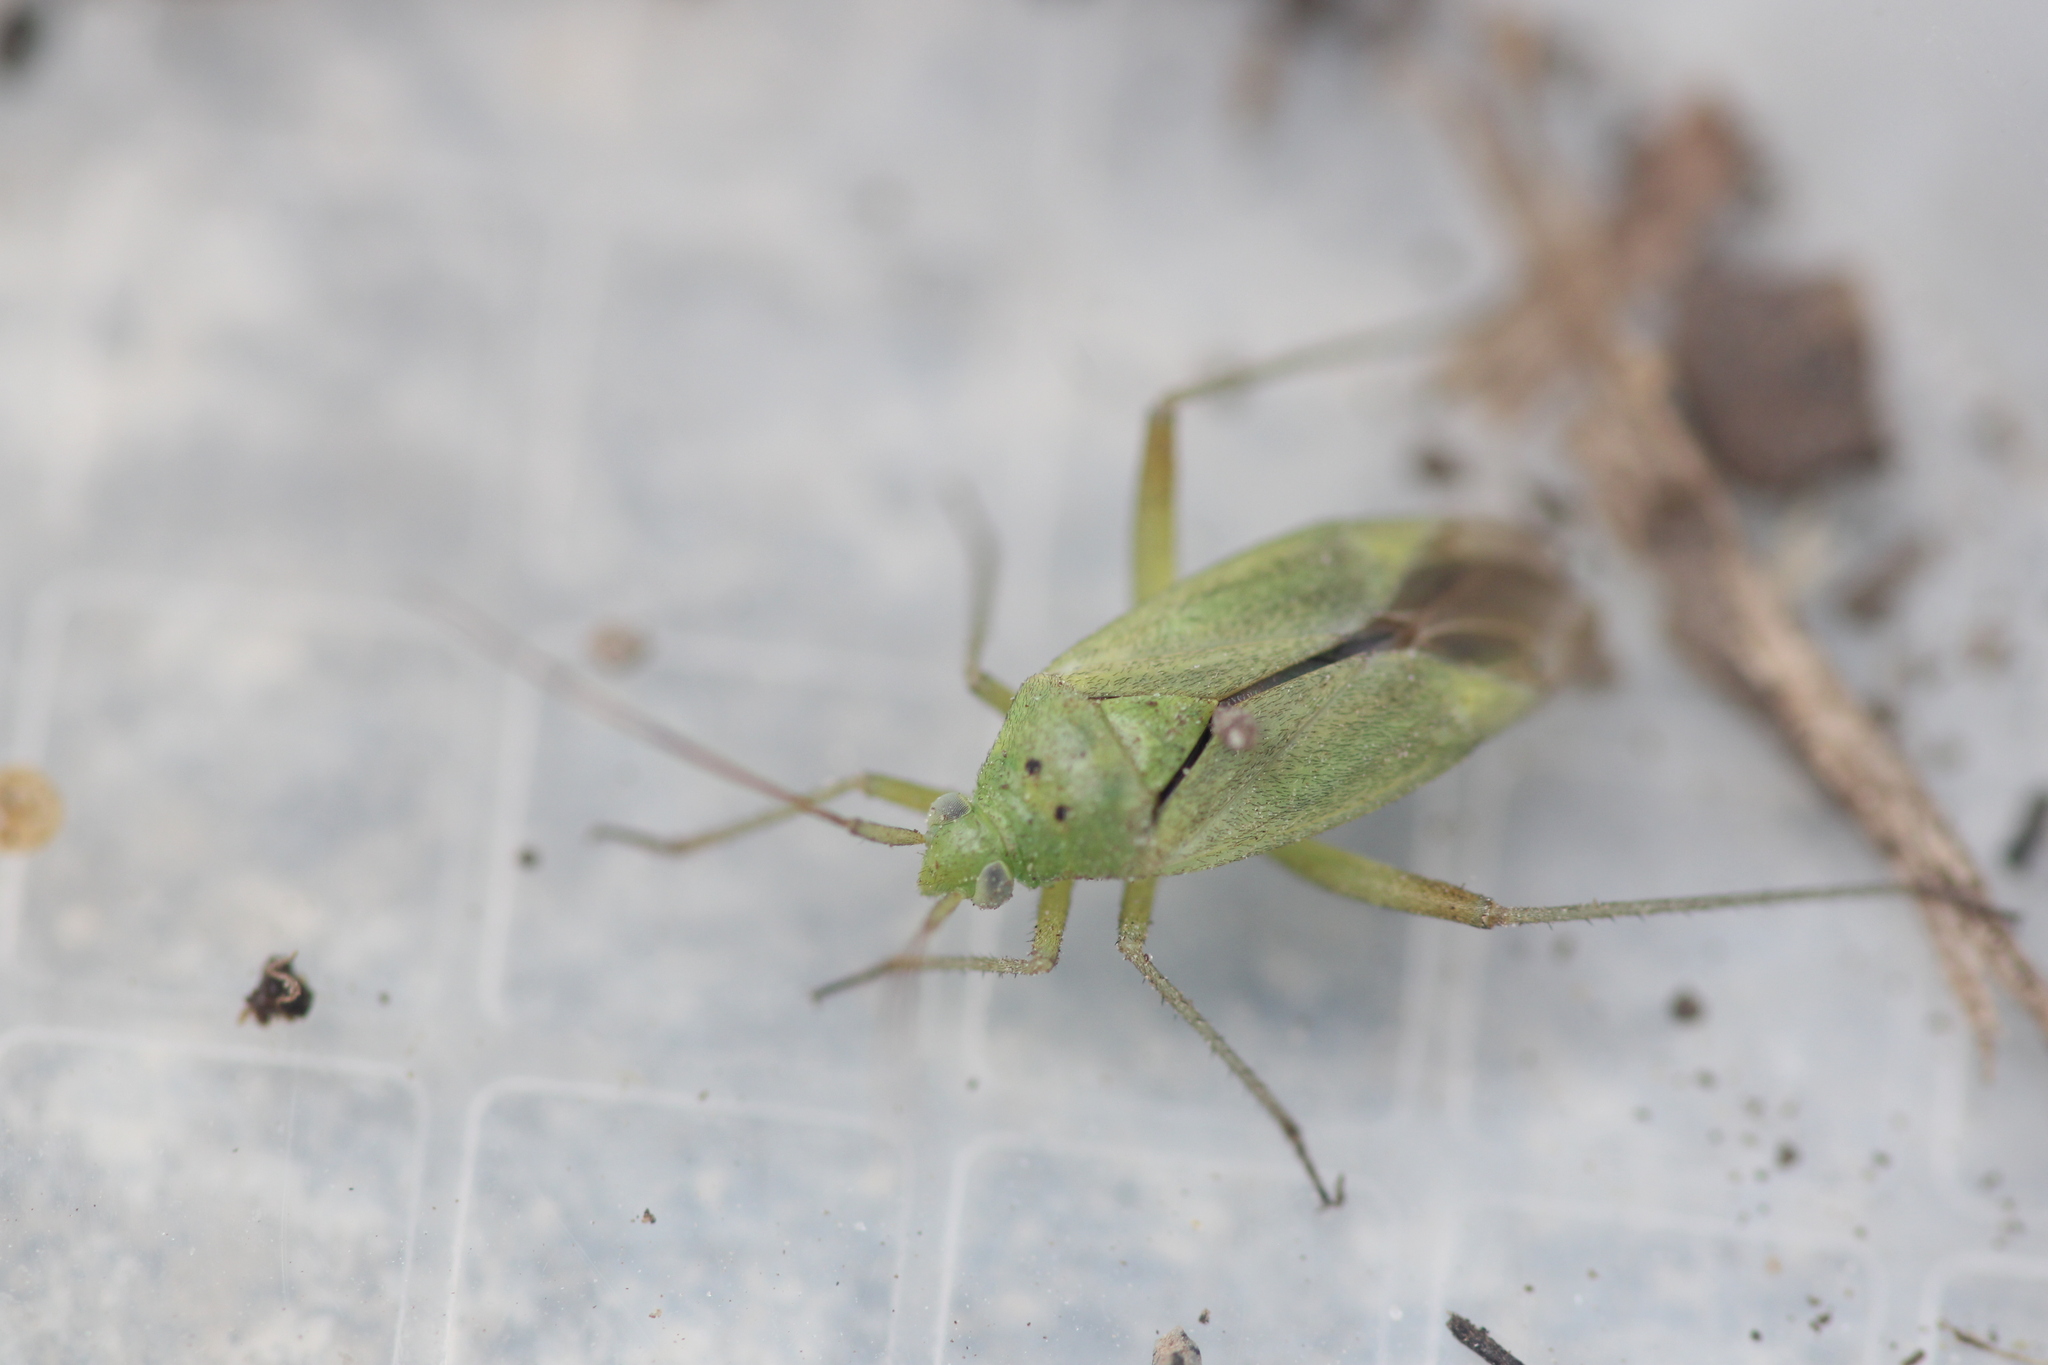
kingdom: Animalia
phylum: Arthropoda
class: Insecta
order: Hemiptera
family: Miridae
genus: Closterotomus
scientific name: Closterotomus norvegicus
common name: Plant bug
